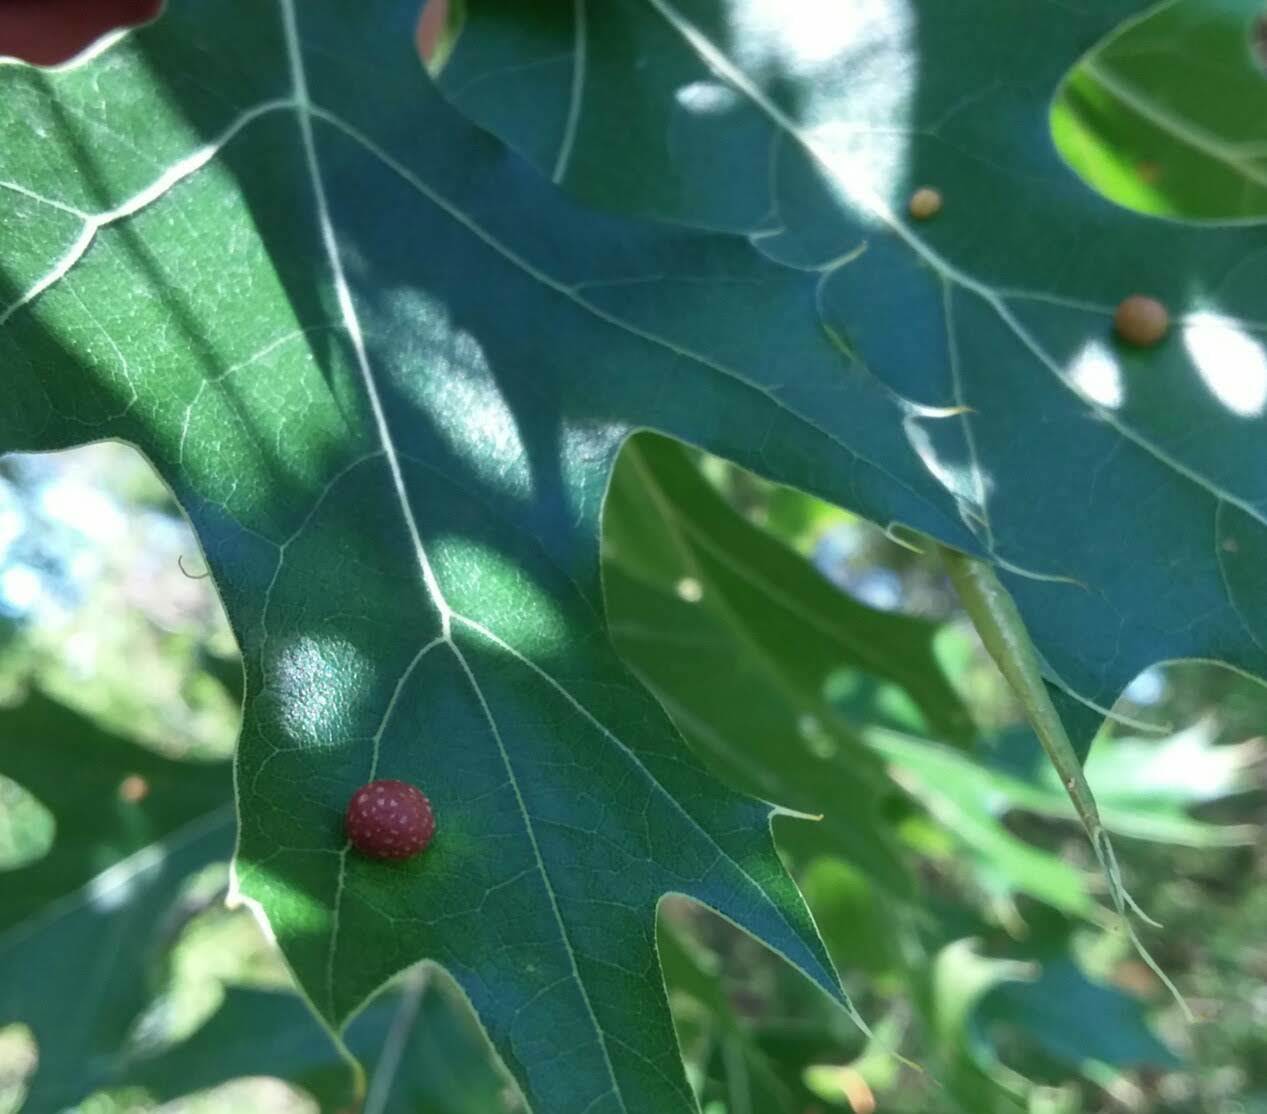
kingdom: Animalia
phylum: Arthropoda
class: Insecta
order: Diptera
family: Cecidomyiidae
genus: Polystepha
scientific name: Polystepha pilulae
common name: Oak leaf gall midge
